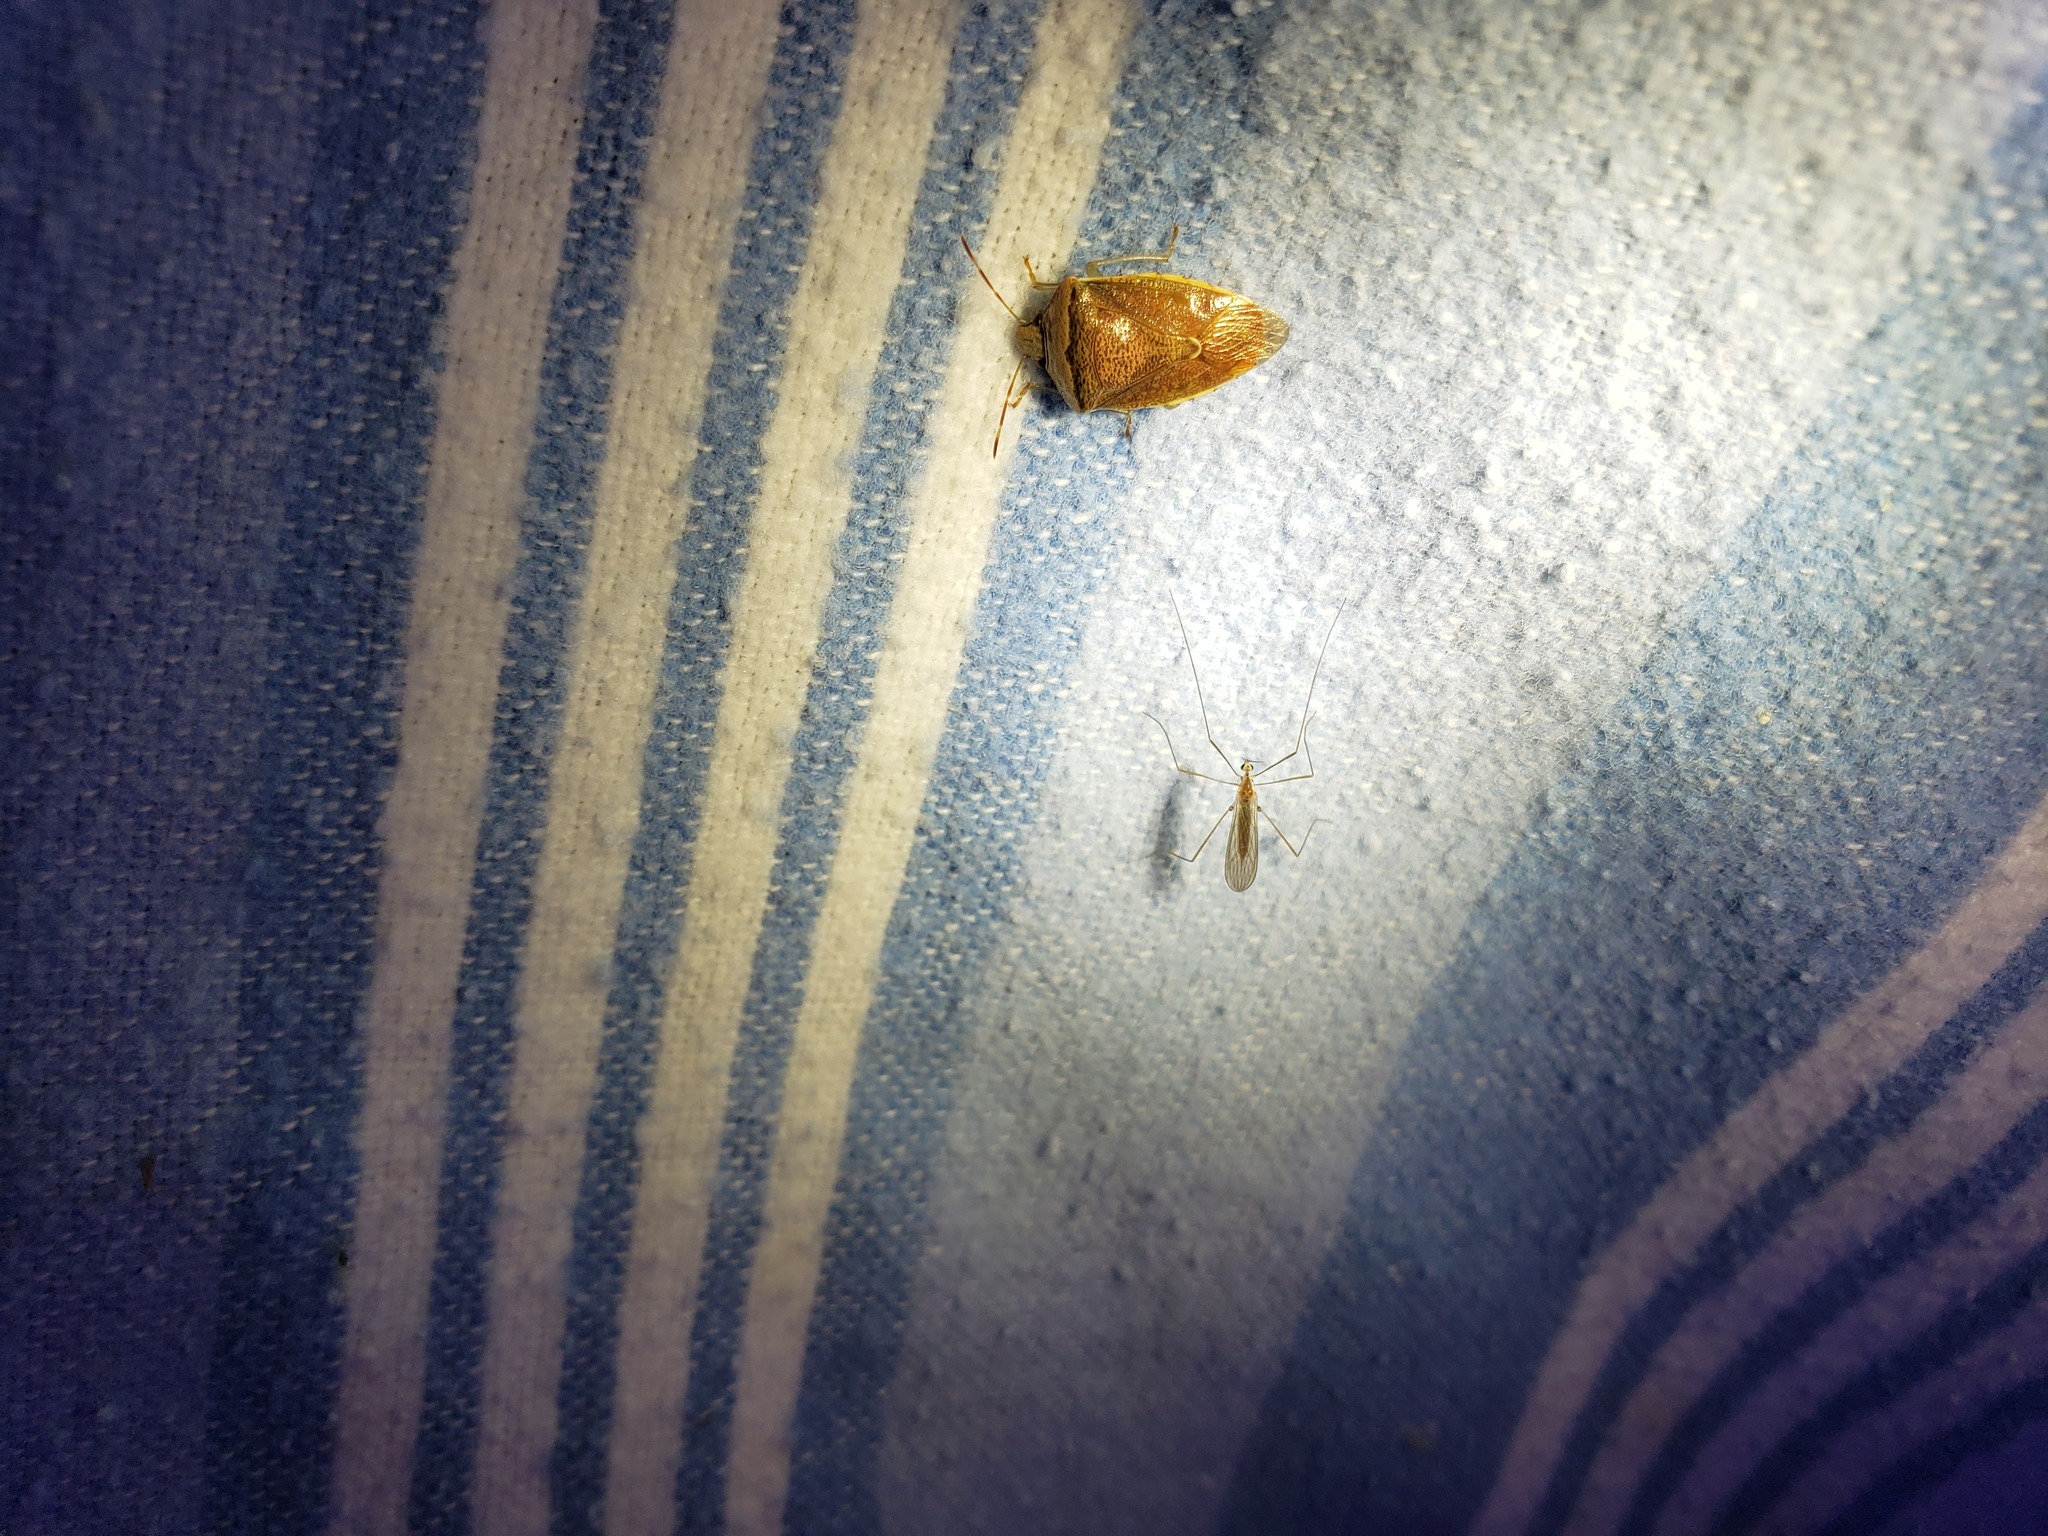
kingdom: Animalia
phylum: Arthropoda
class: Insecta
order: Diptera
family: Limoniidae
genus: Erioptera
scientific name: Erioptera septemtrionis
